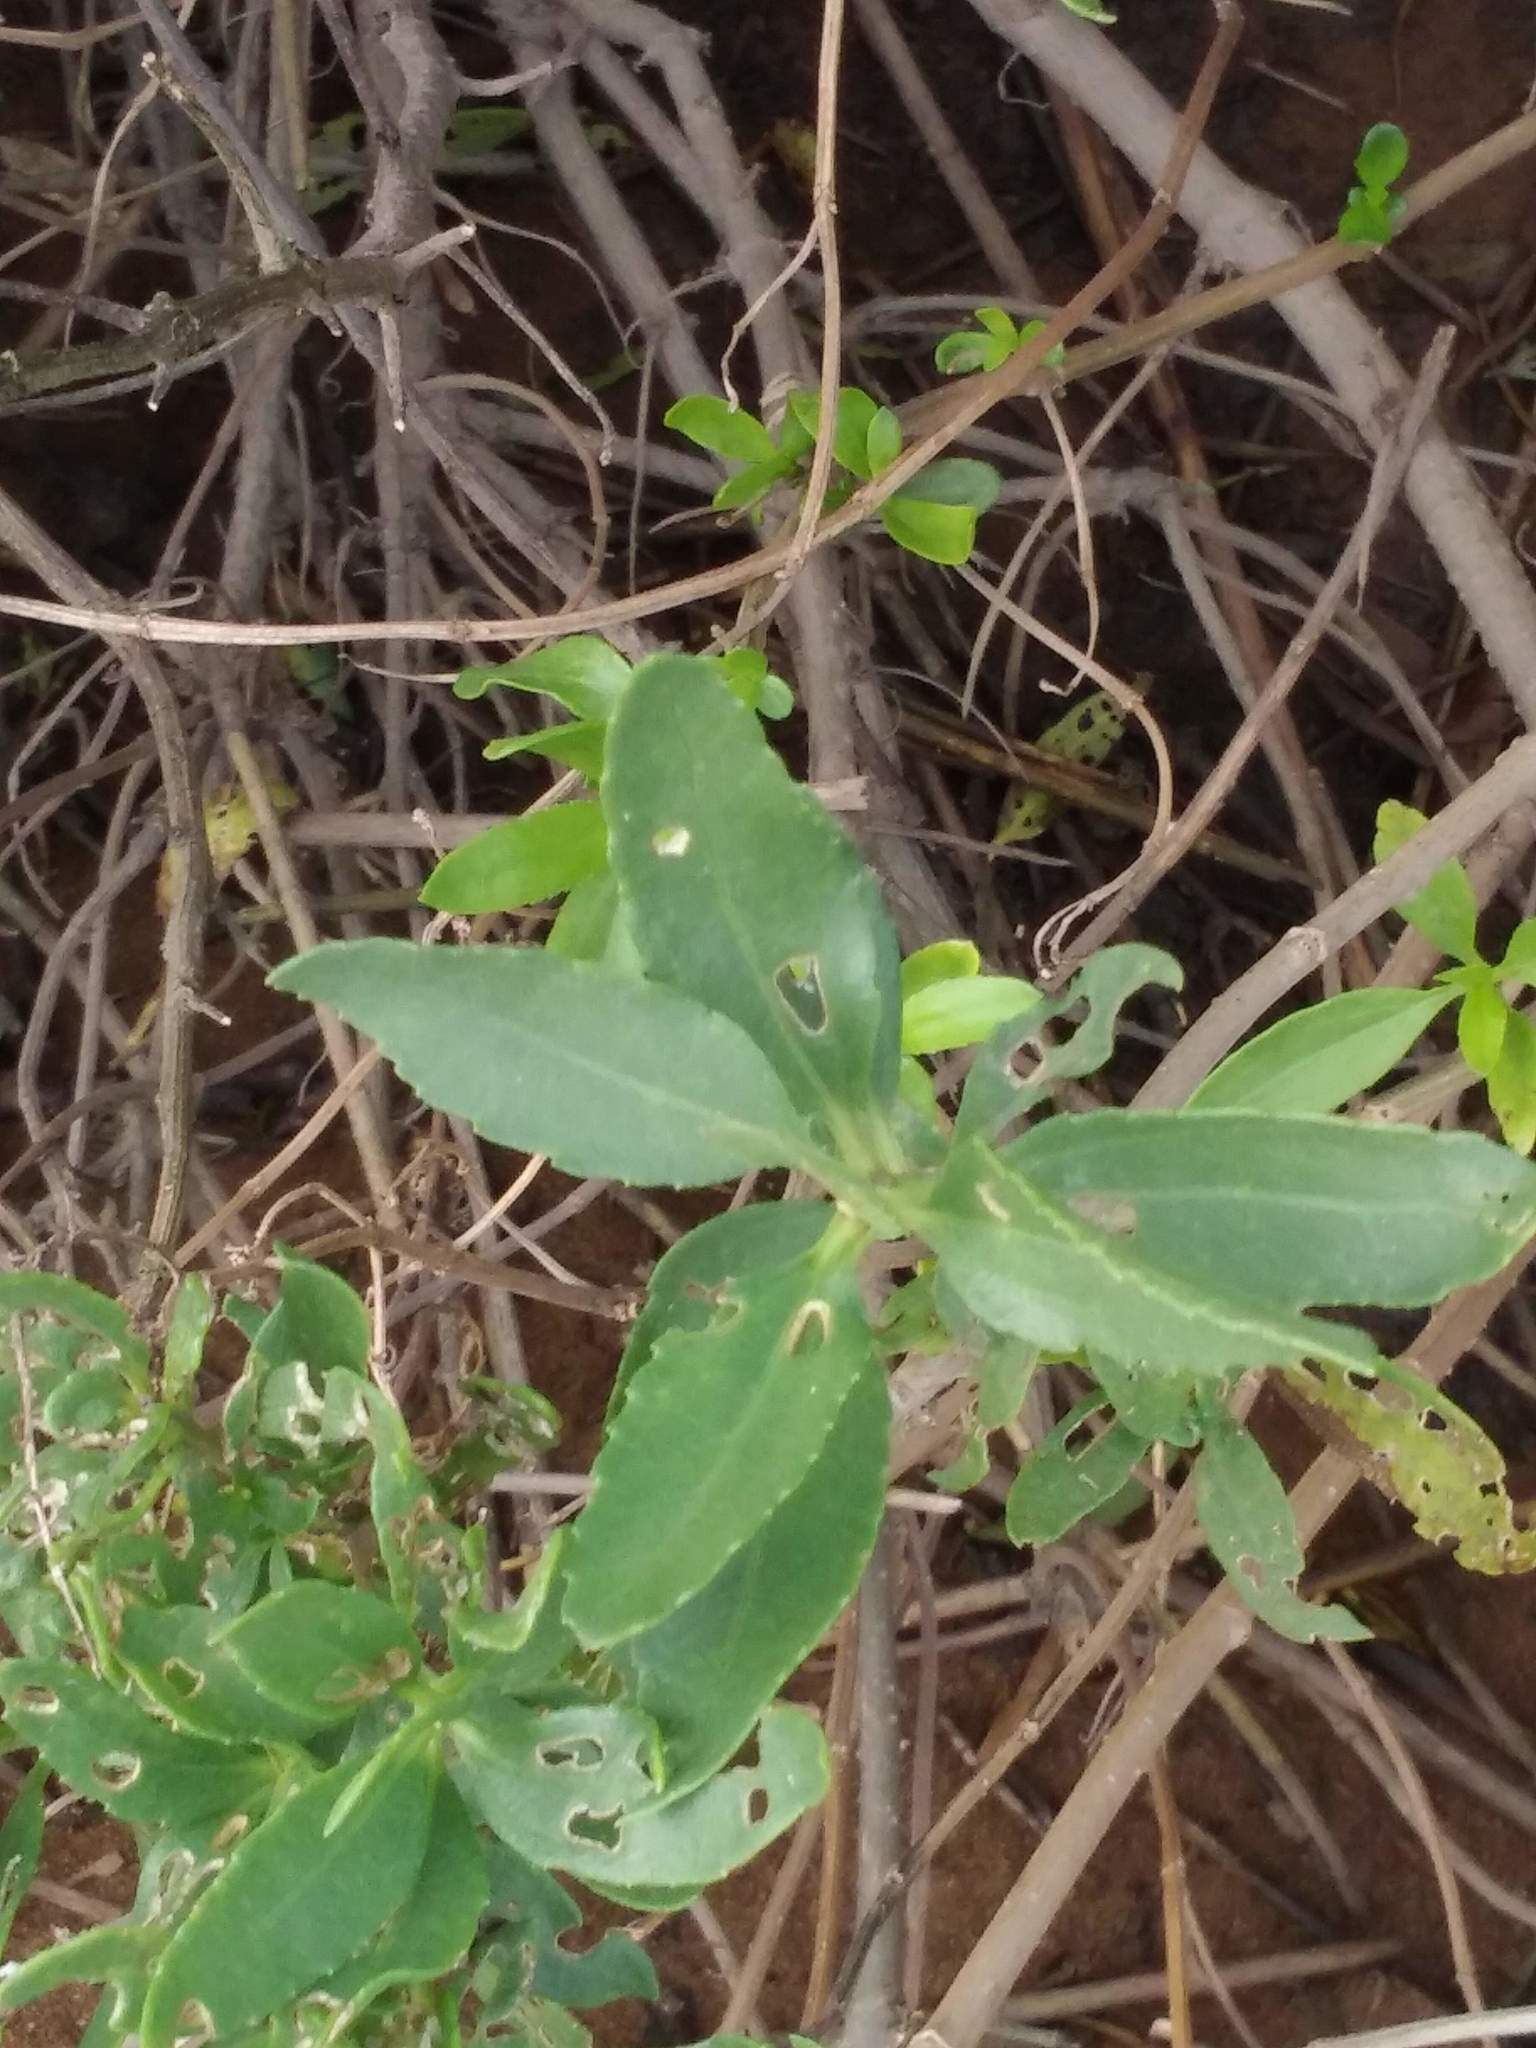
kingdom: Plantae
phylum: Tracheophyta
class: Magnoliopsida
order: Asterales
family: Asteraceae
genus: Iva
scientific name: Iva frutescens
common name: Big-leaved marsh-elder
